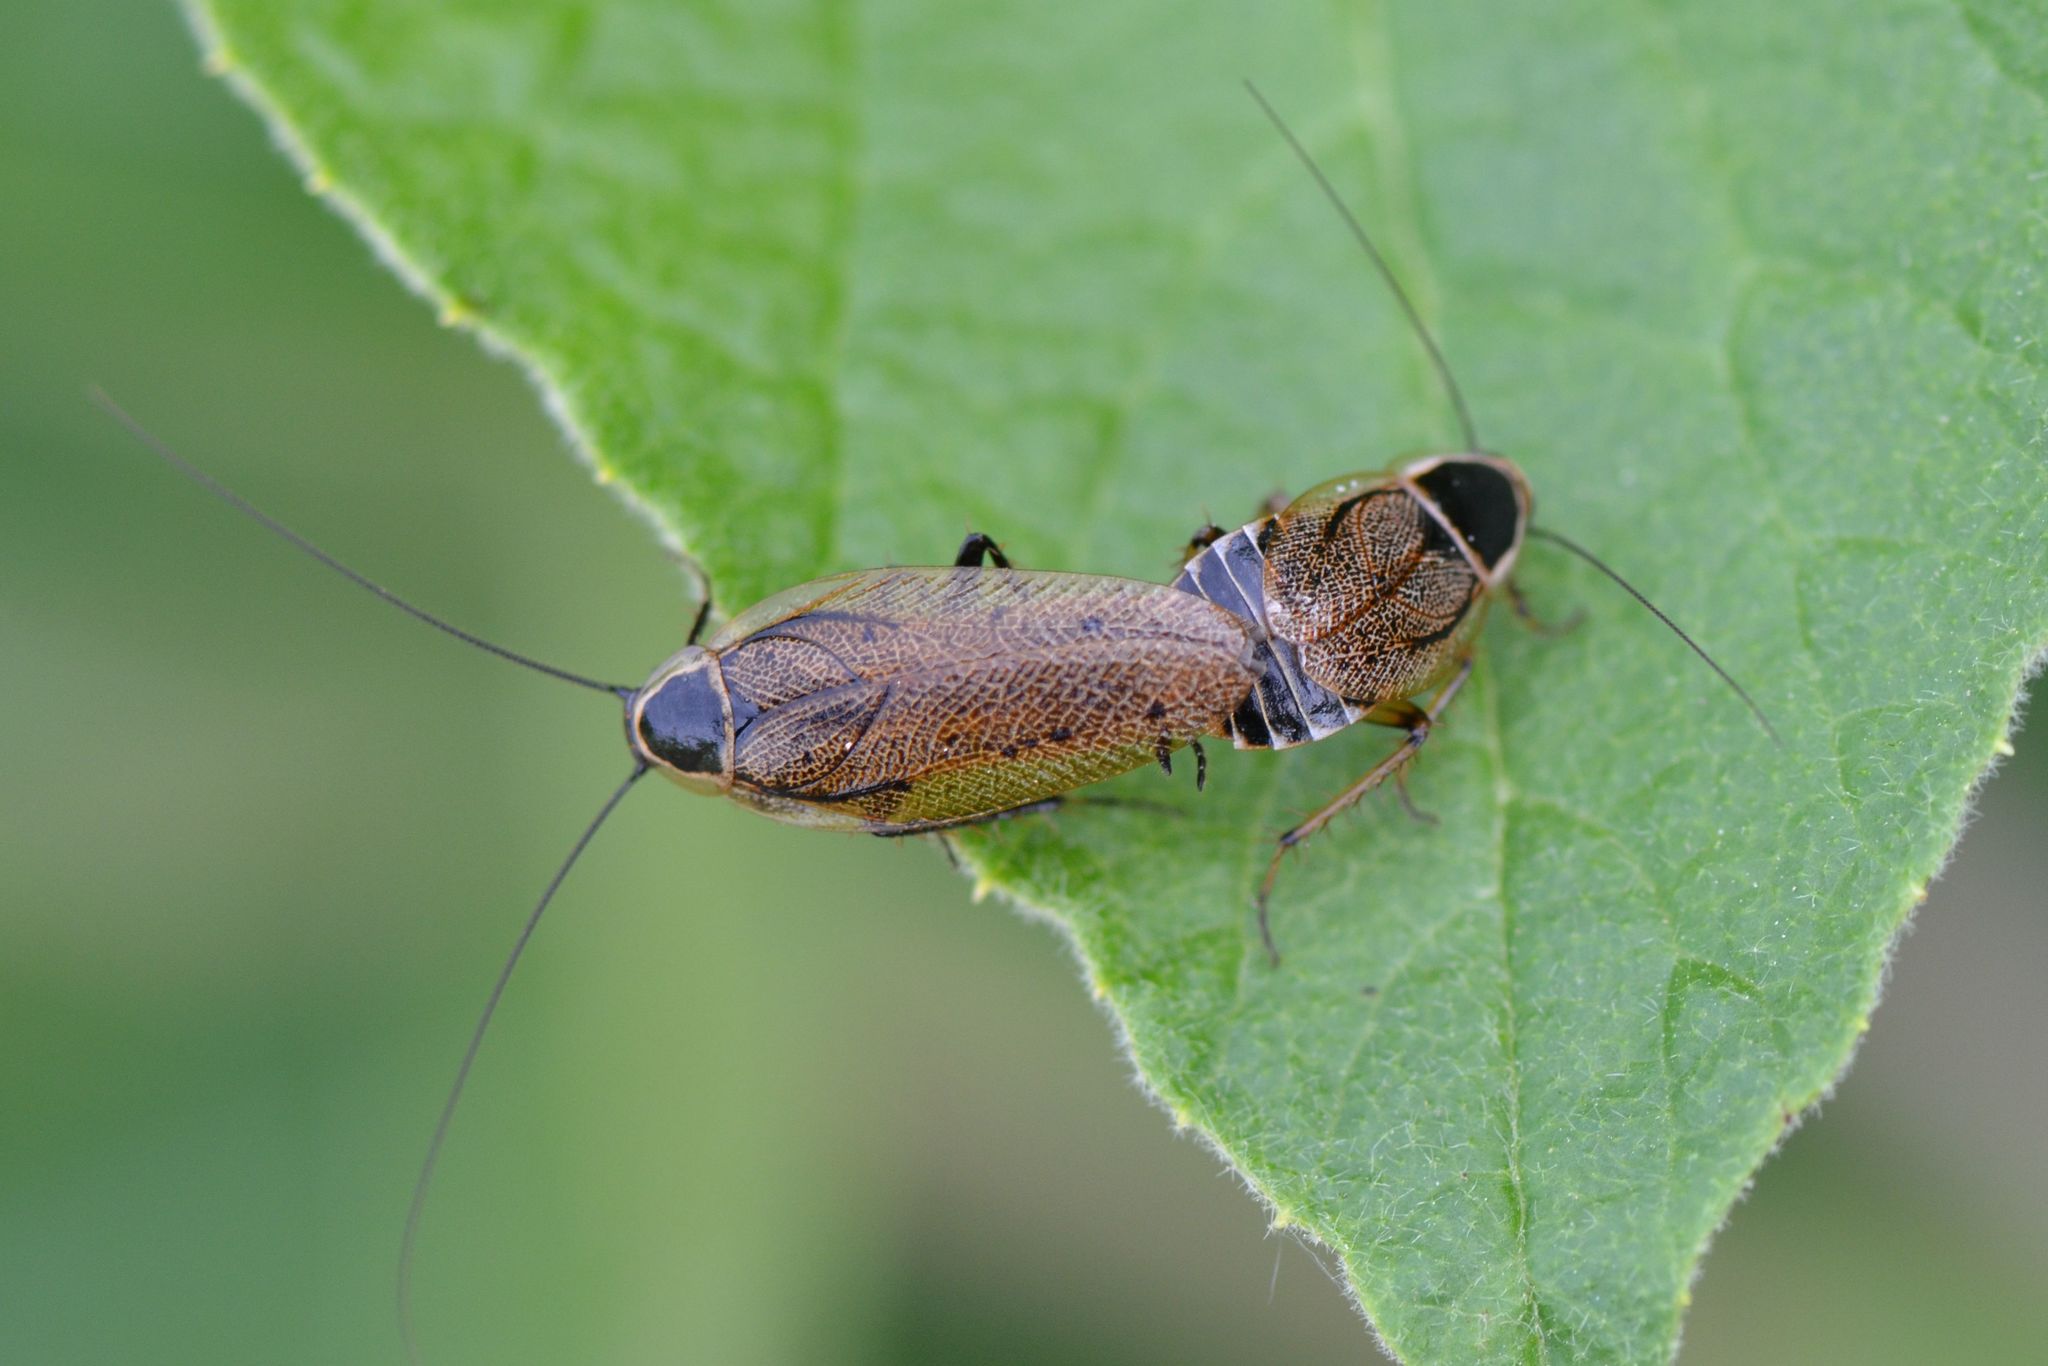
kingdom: Animalia
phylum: Arthropoda
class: Insecta
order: Blattodea
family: Ectobiidae
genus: Ectobius
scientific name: Ectobius sylvestris
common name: Forest cockroach
